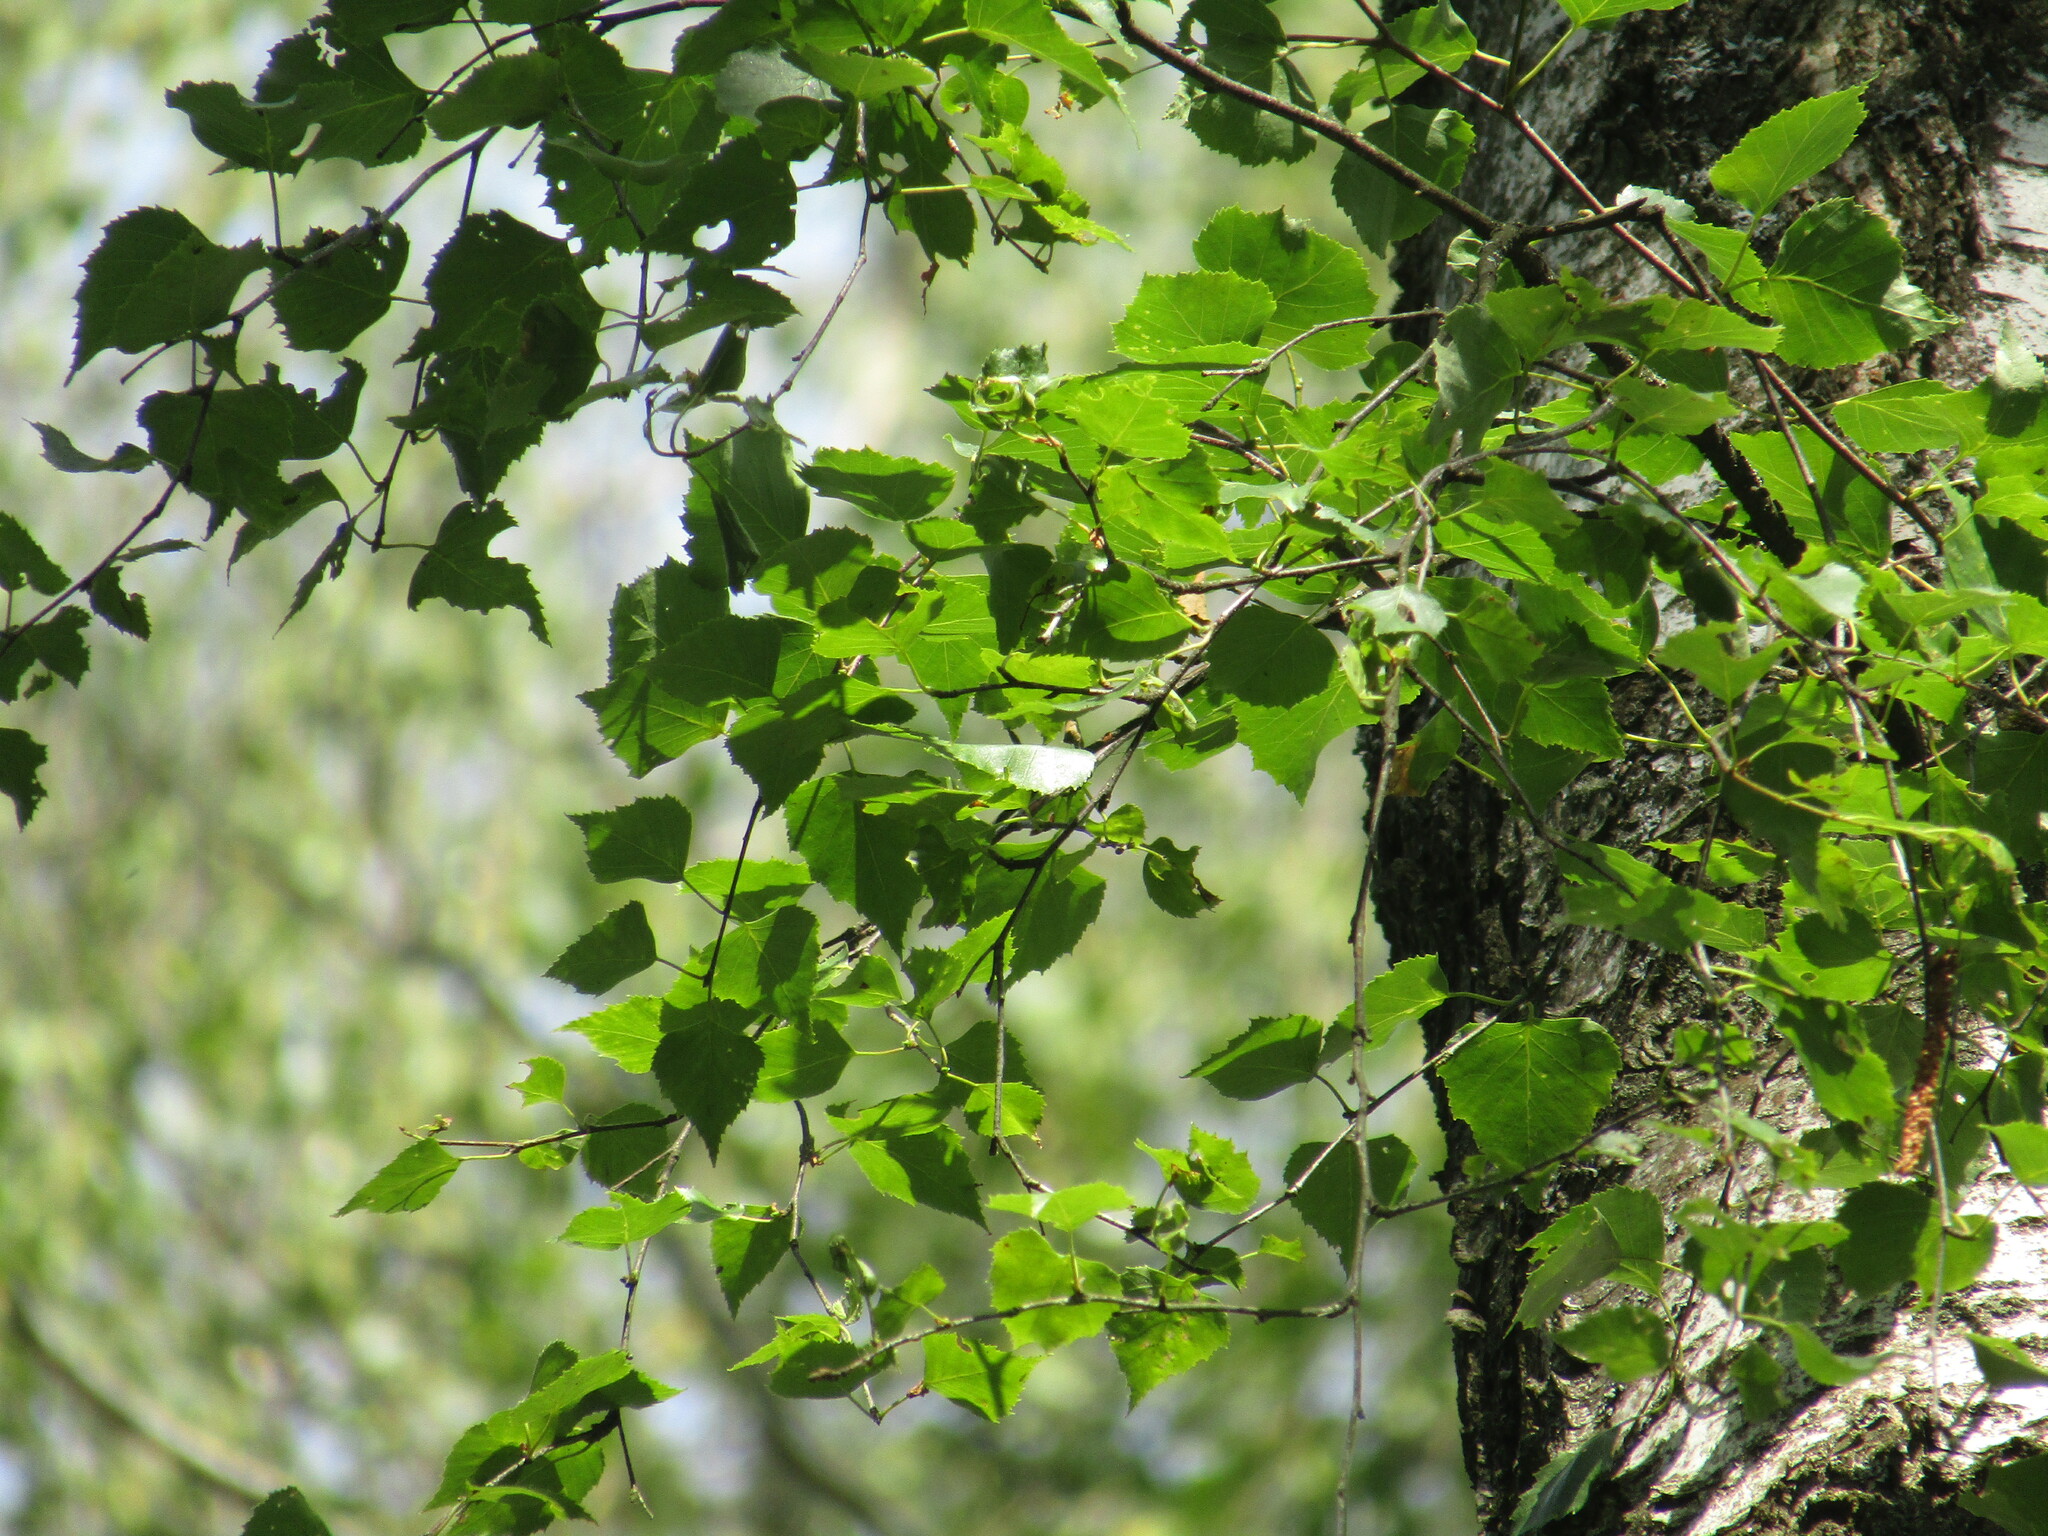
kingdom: Plantae
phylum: Tracheophyta
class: Magnoliopsida
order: Fagales
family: Betulaceae
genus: Betula
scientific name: Betula pendula
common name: Silver birch
